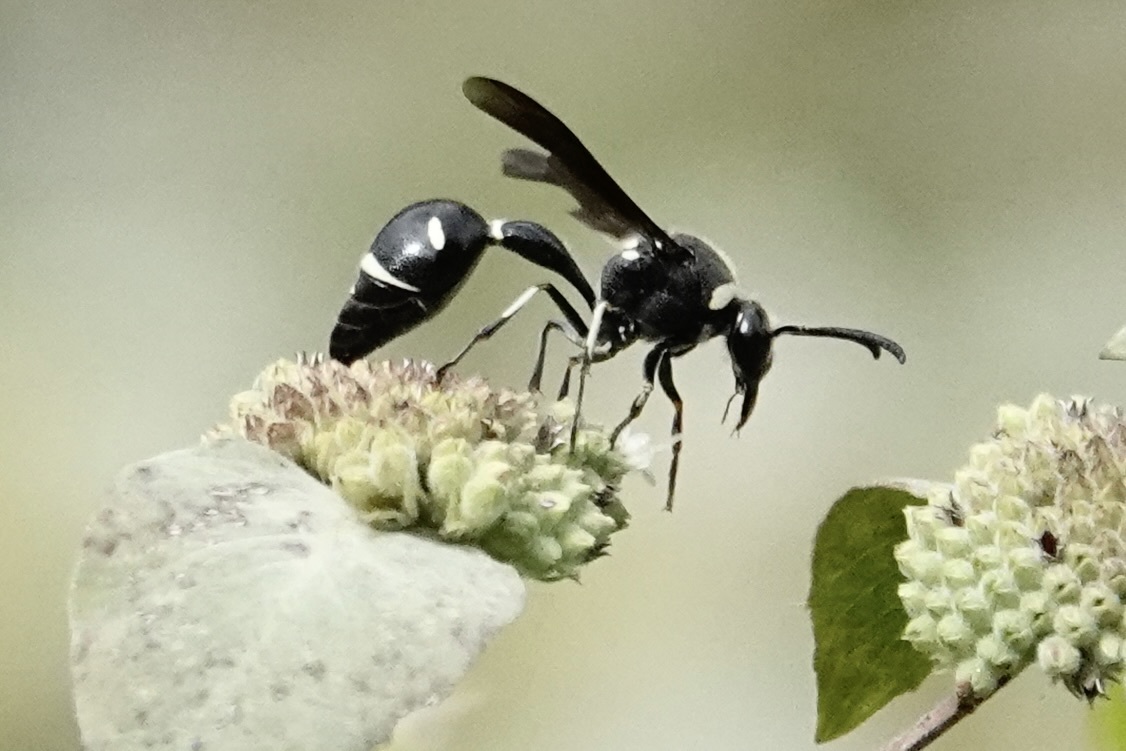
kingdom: Animalia
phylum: Arthropoda
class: Insecta
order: Hymenoptera
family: Vespidae
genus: Eumenes
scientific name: Eumenes fraternus
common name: Fraternal potter wasp
